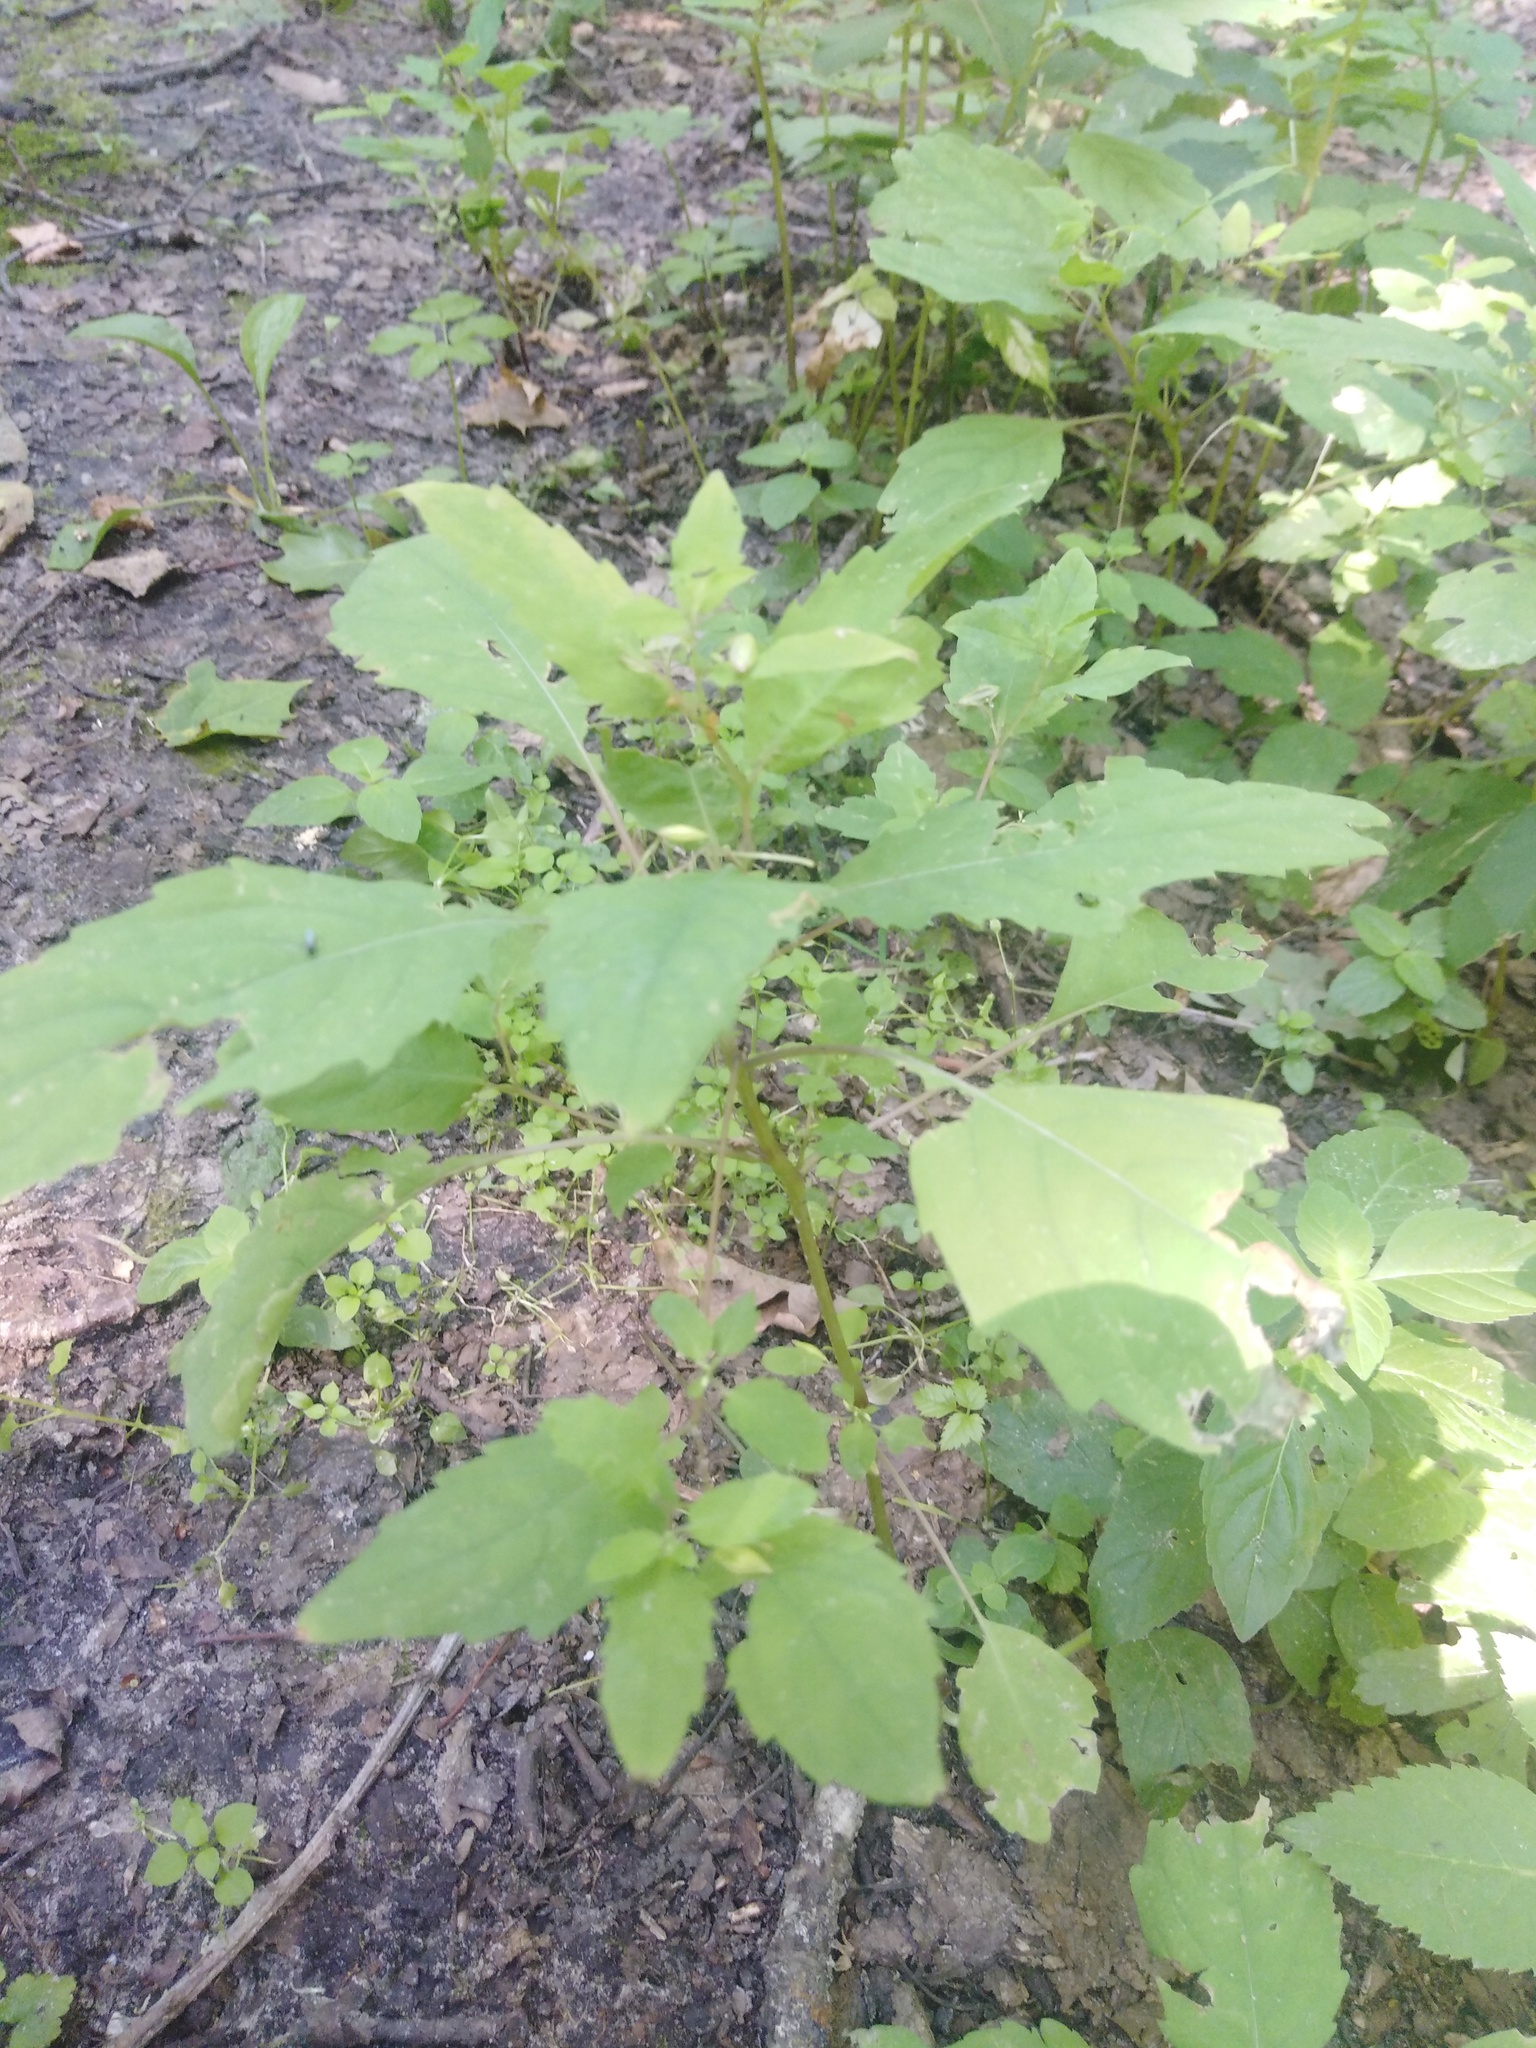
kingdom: Plantae
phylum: Tracheophyta
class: Magnoliopsida
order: Ericales
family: Balsaminaceae
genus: Impatiens
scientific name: Impatiens noli-tangere
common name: Touch-me-not balsam
